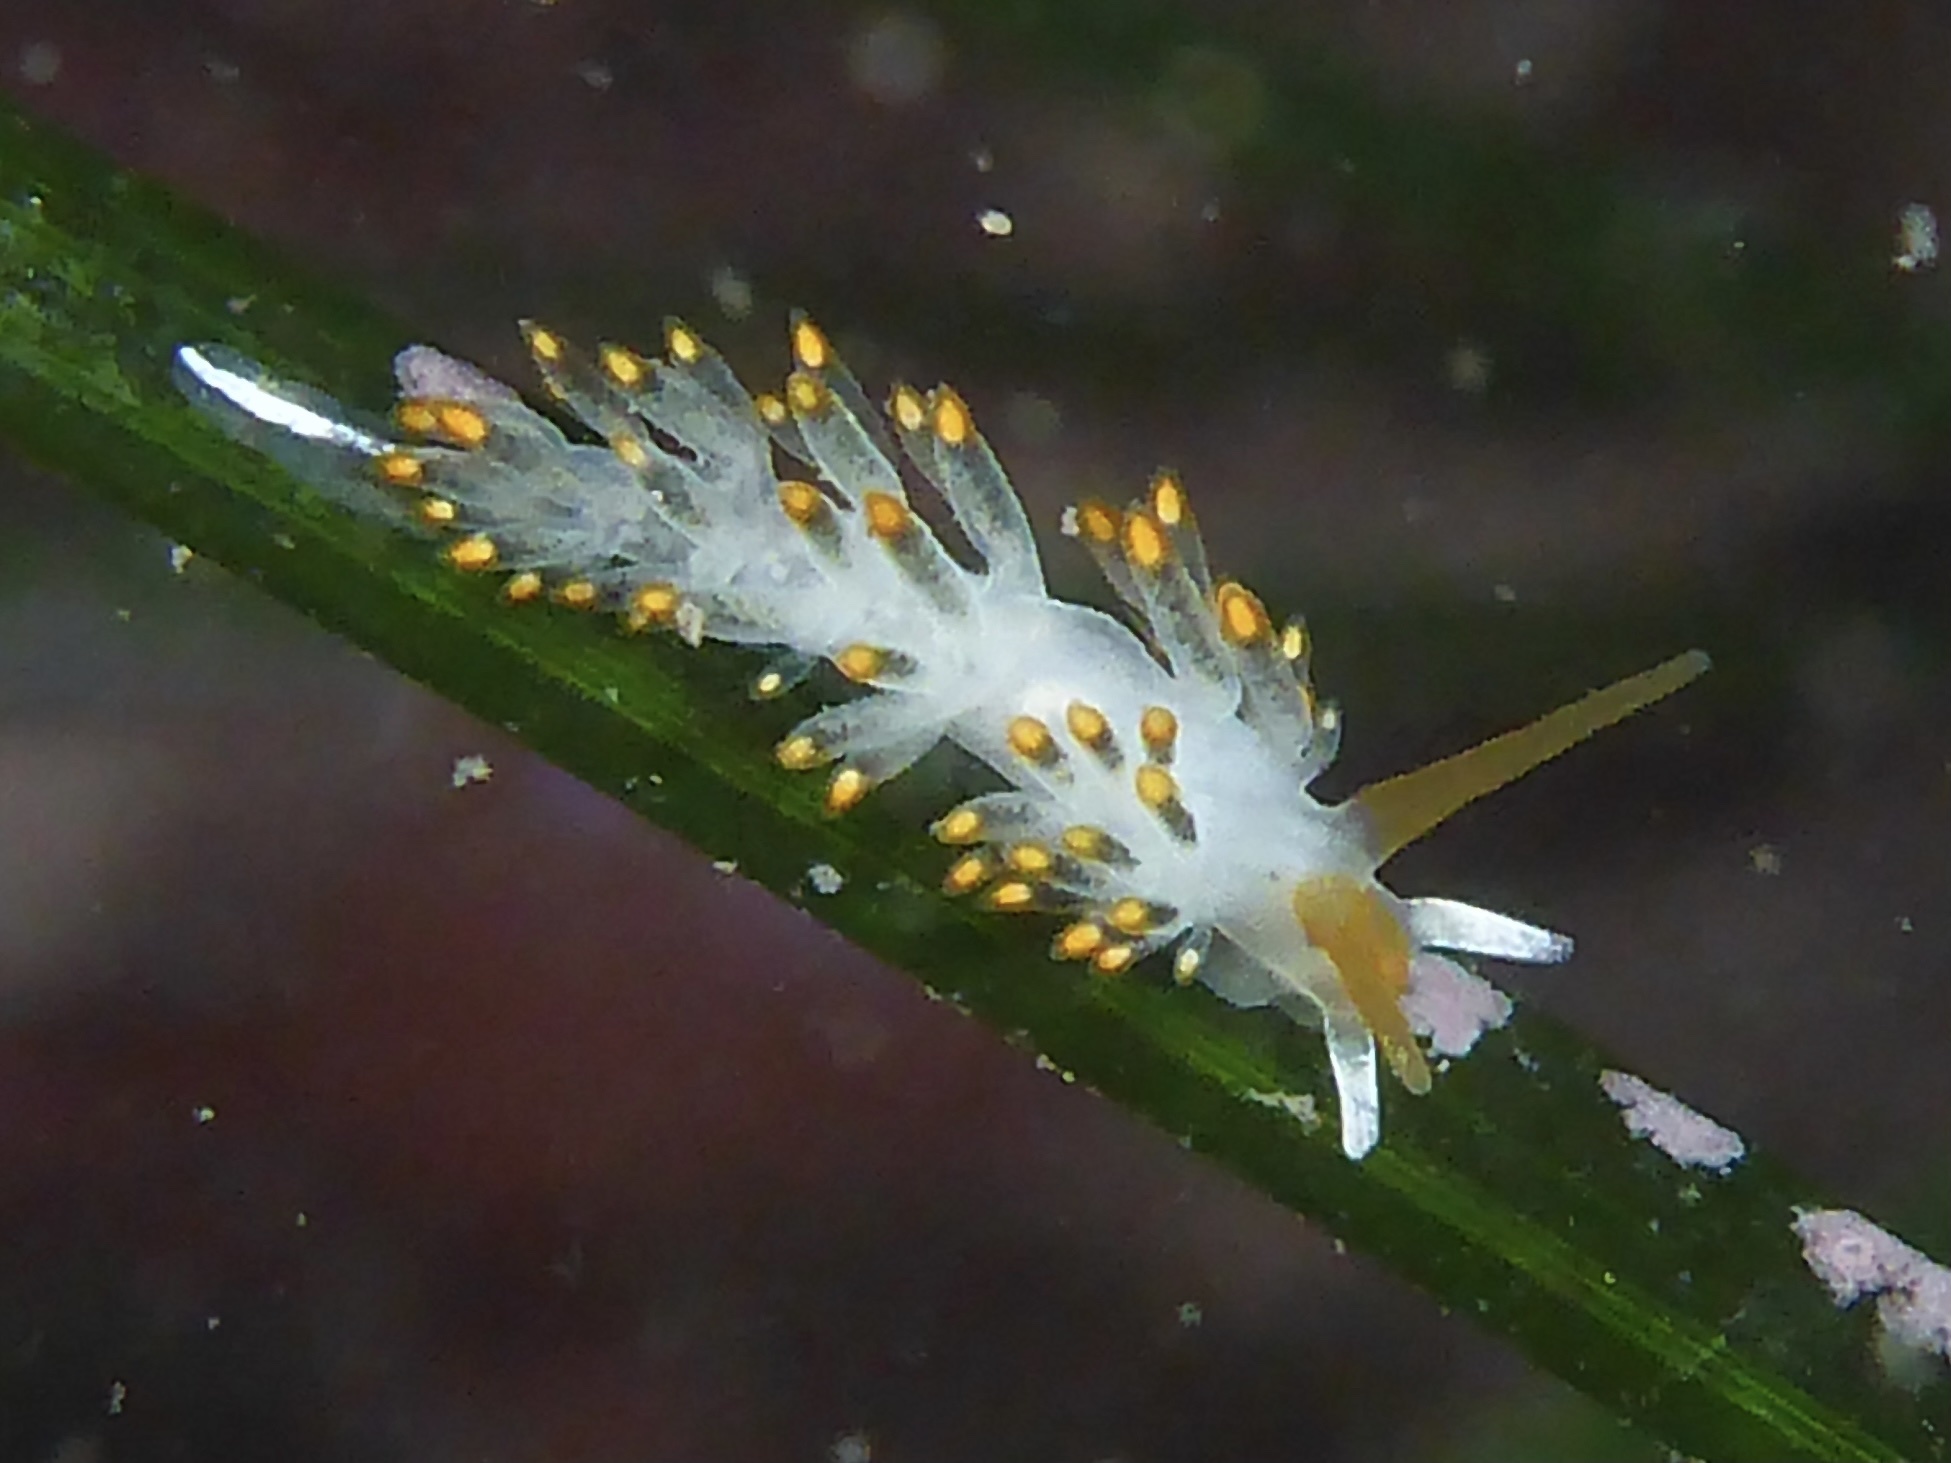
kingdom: Animalia
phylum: Mollusca
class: Gastropoda
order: Nudibranchia
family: Trinchesiidae
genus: Diaphoreolis
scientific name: Diaphoreolis lagunae
